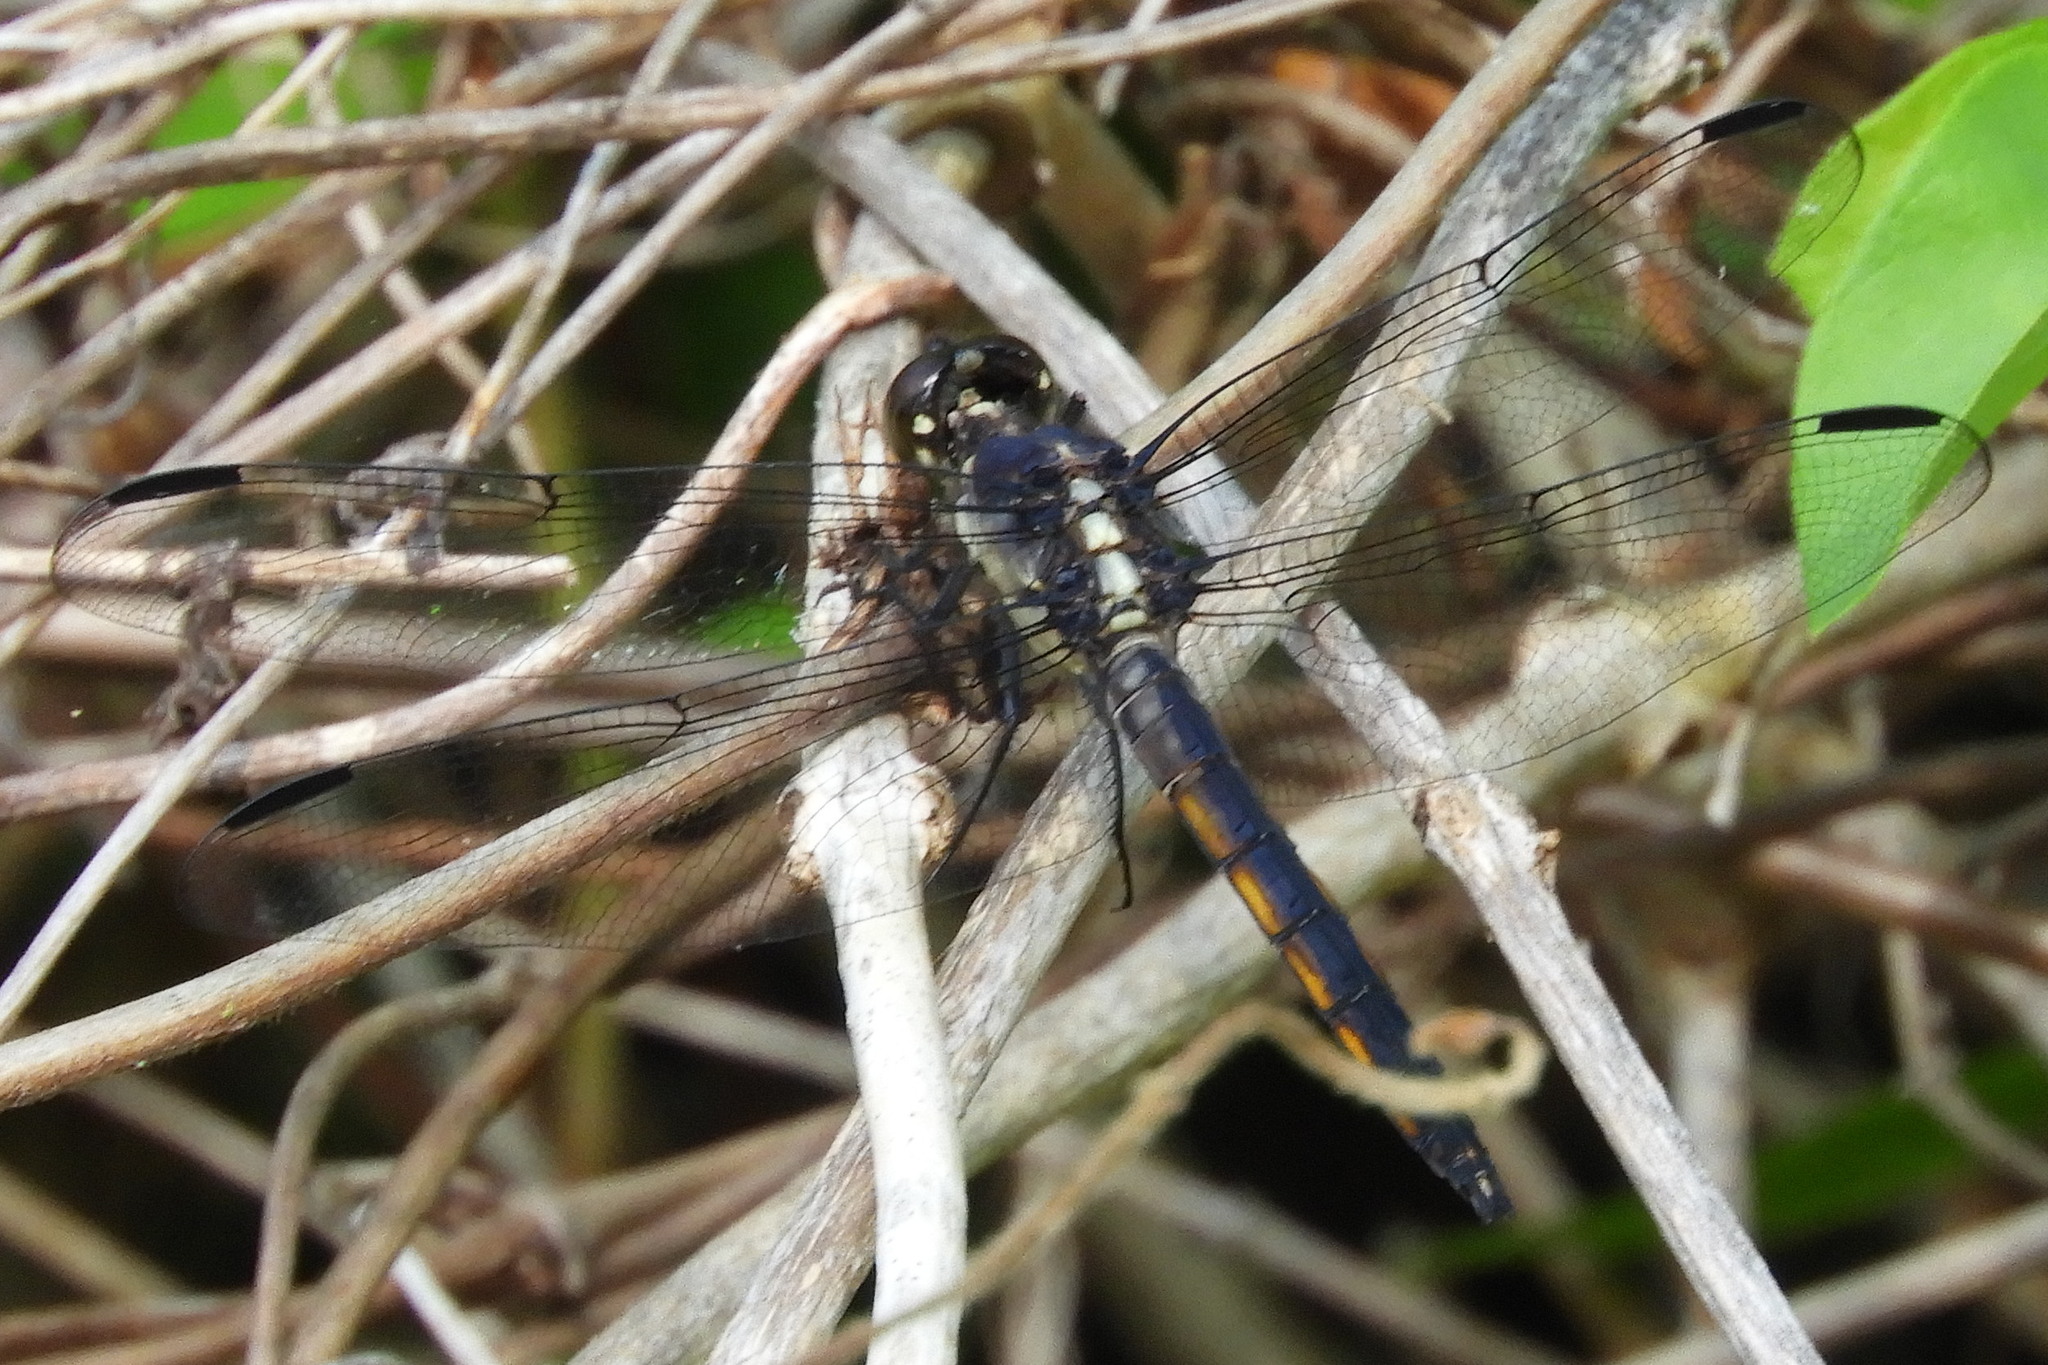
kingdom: Animalia
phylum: Arthropoda
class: Insecta
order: Odonata
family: Libellulidae
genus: Libellula
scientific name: Libellula incesta
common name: Slaty skimmer
